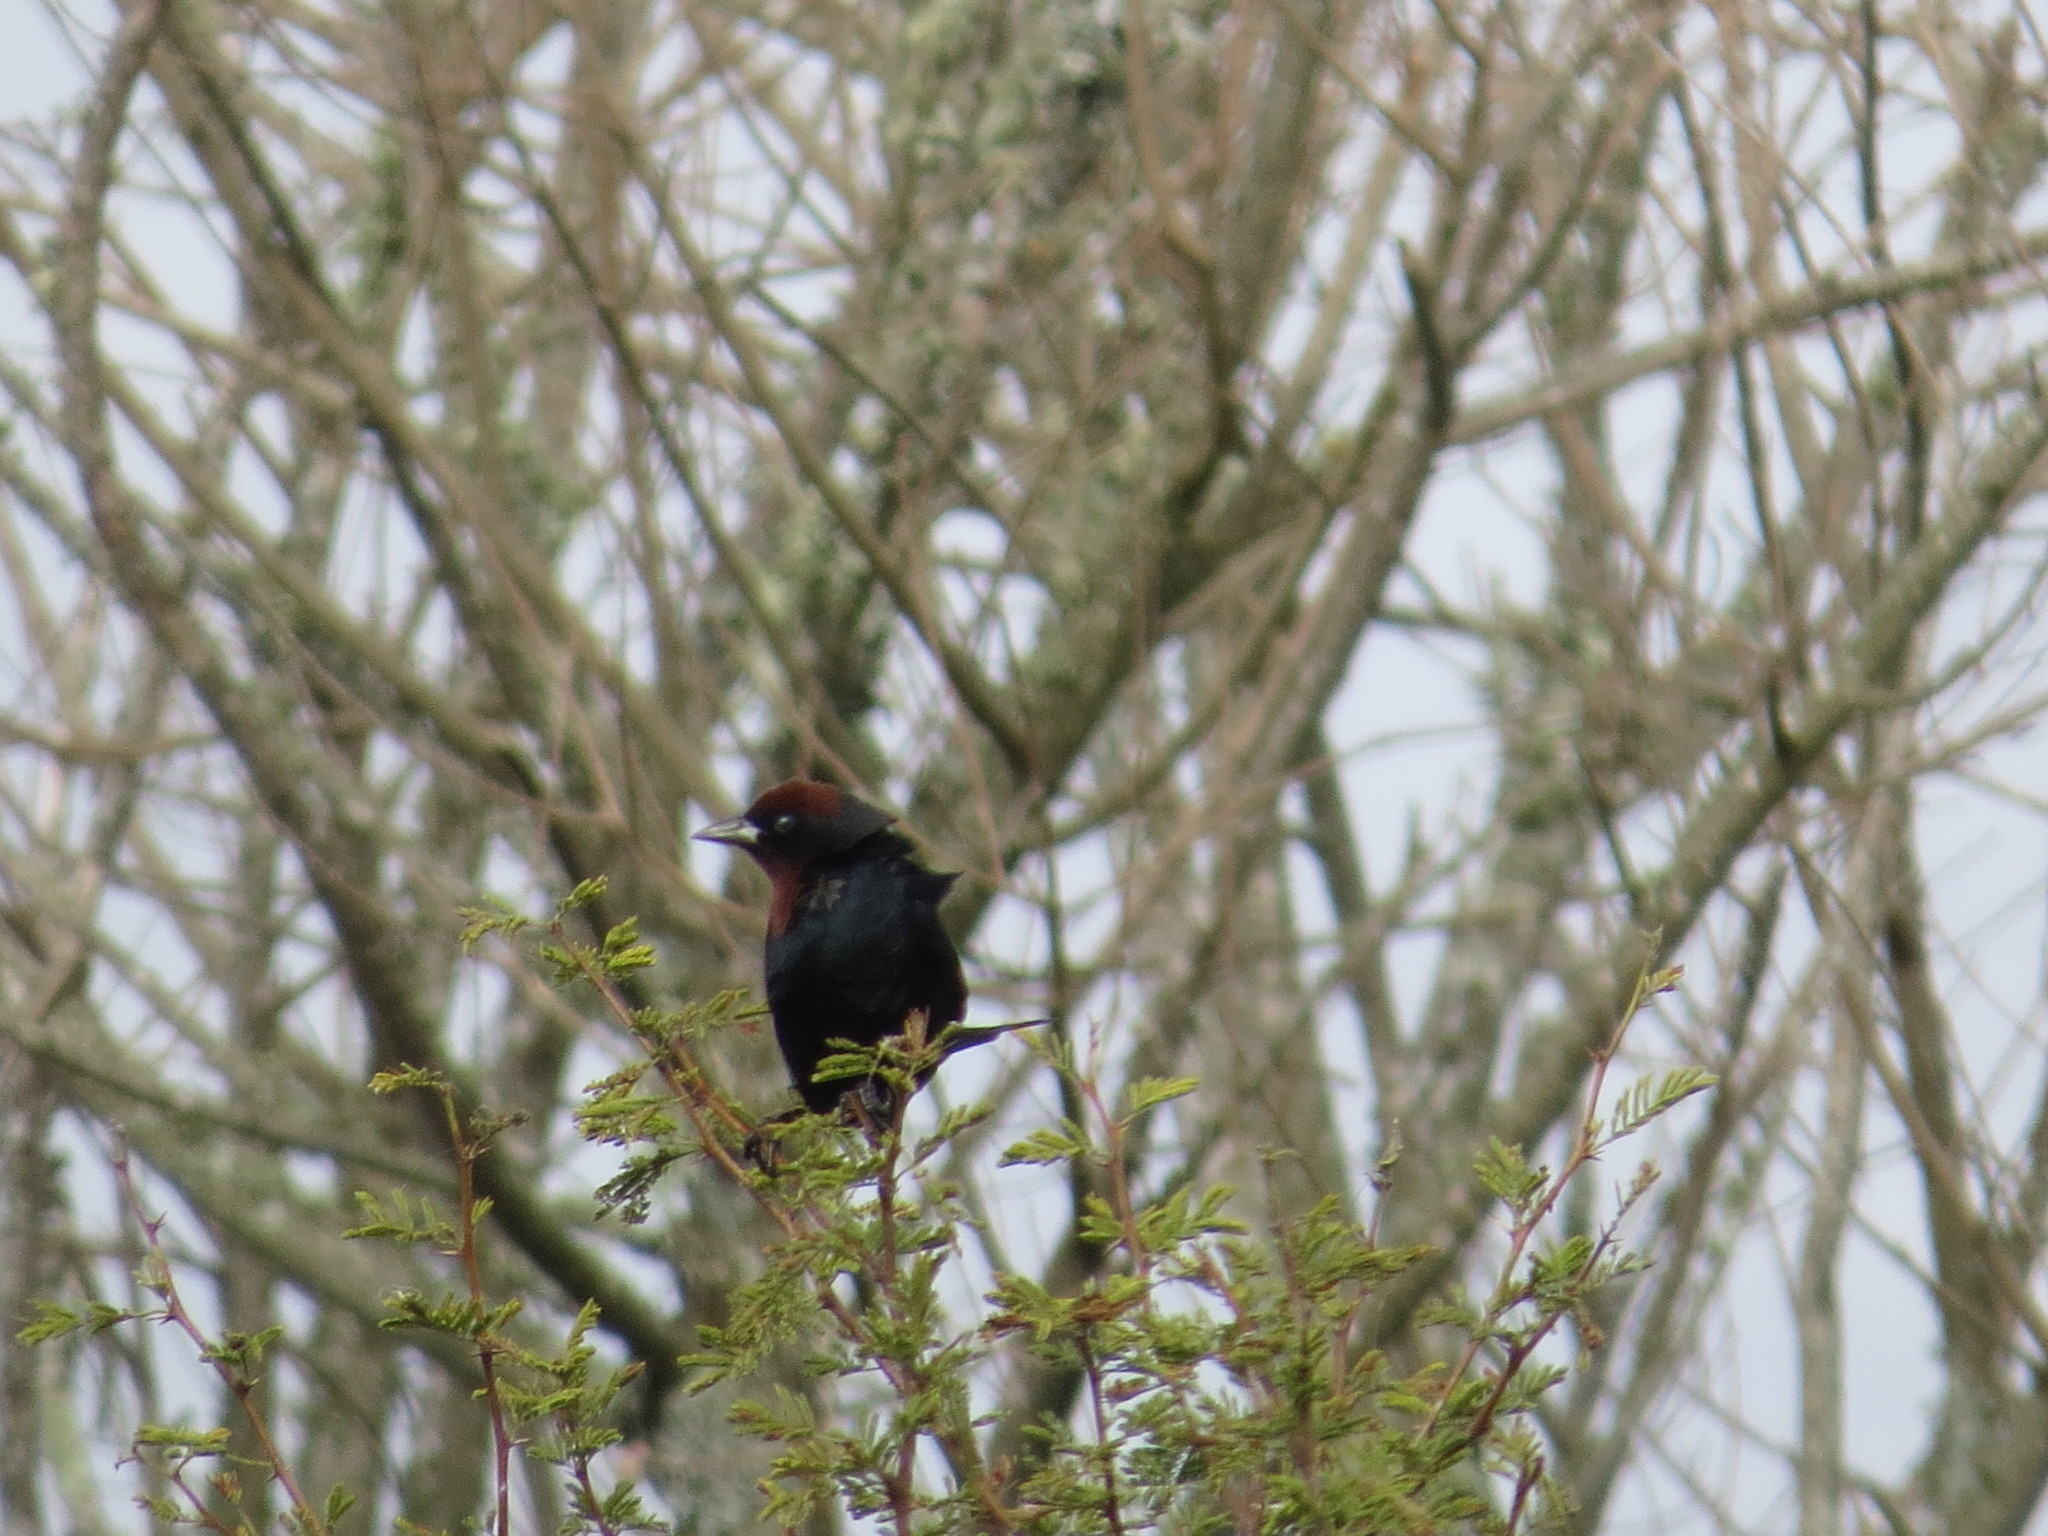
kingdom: Animalia
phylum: Chordata
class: Aves
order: Passeriformes
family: Icteridae
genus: Chrysomus
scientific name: Chrysomus ruficapillus
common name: Chestnut-capped blackbird
